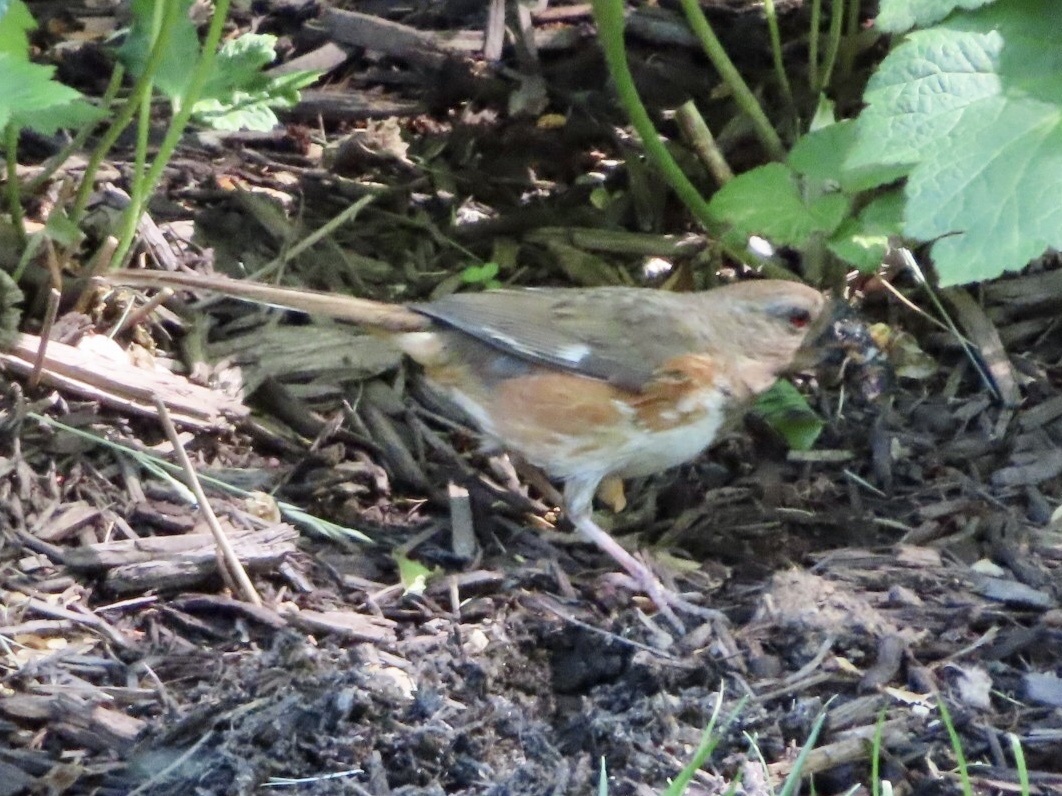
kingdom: Animalia
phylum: Chordata
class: Aves
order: Passeriformes
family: Passerellidae
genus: Pipilo
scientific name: Pipilo erythrophthalmus
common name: Eastern towhee
